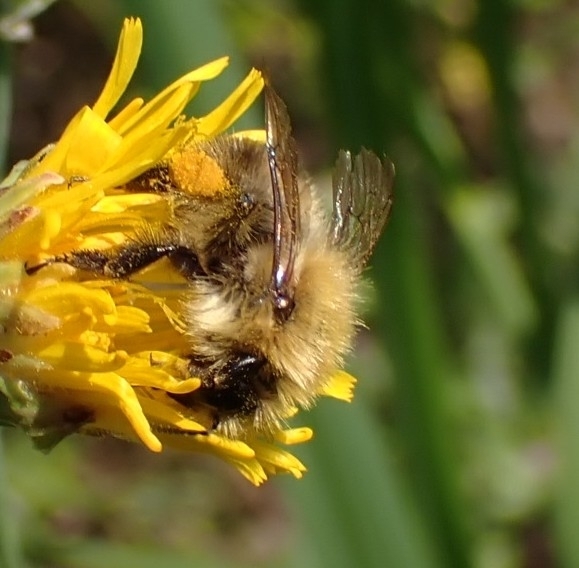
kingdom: Animalia
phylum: Arthropoda
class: Insecta
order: Hymenoptera
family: Apidae
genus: Bombus
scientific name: Bombus pascuorum
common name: Common carder bee
